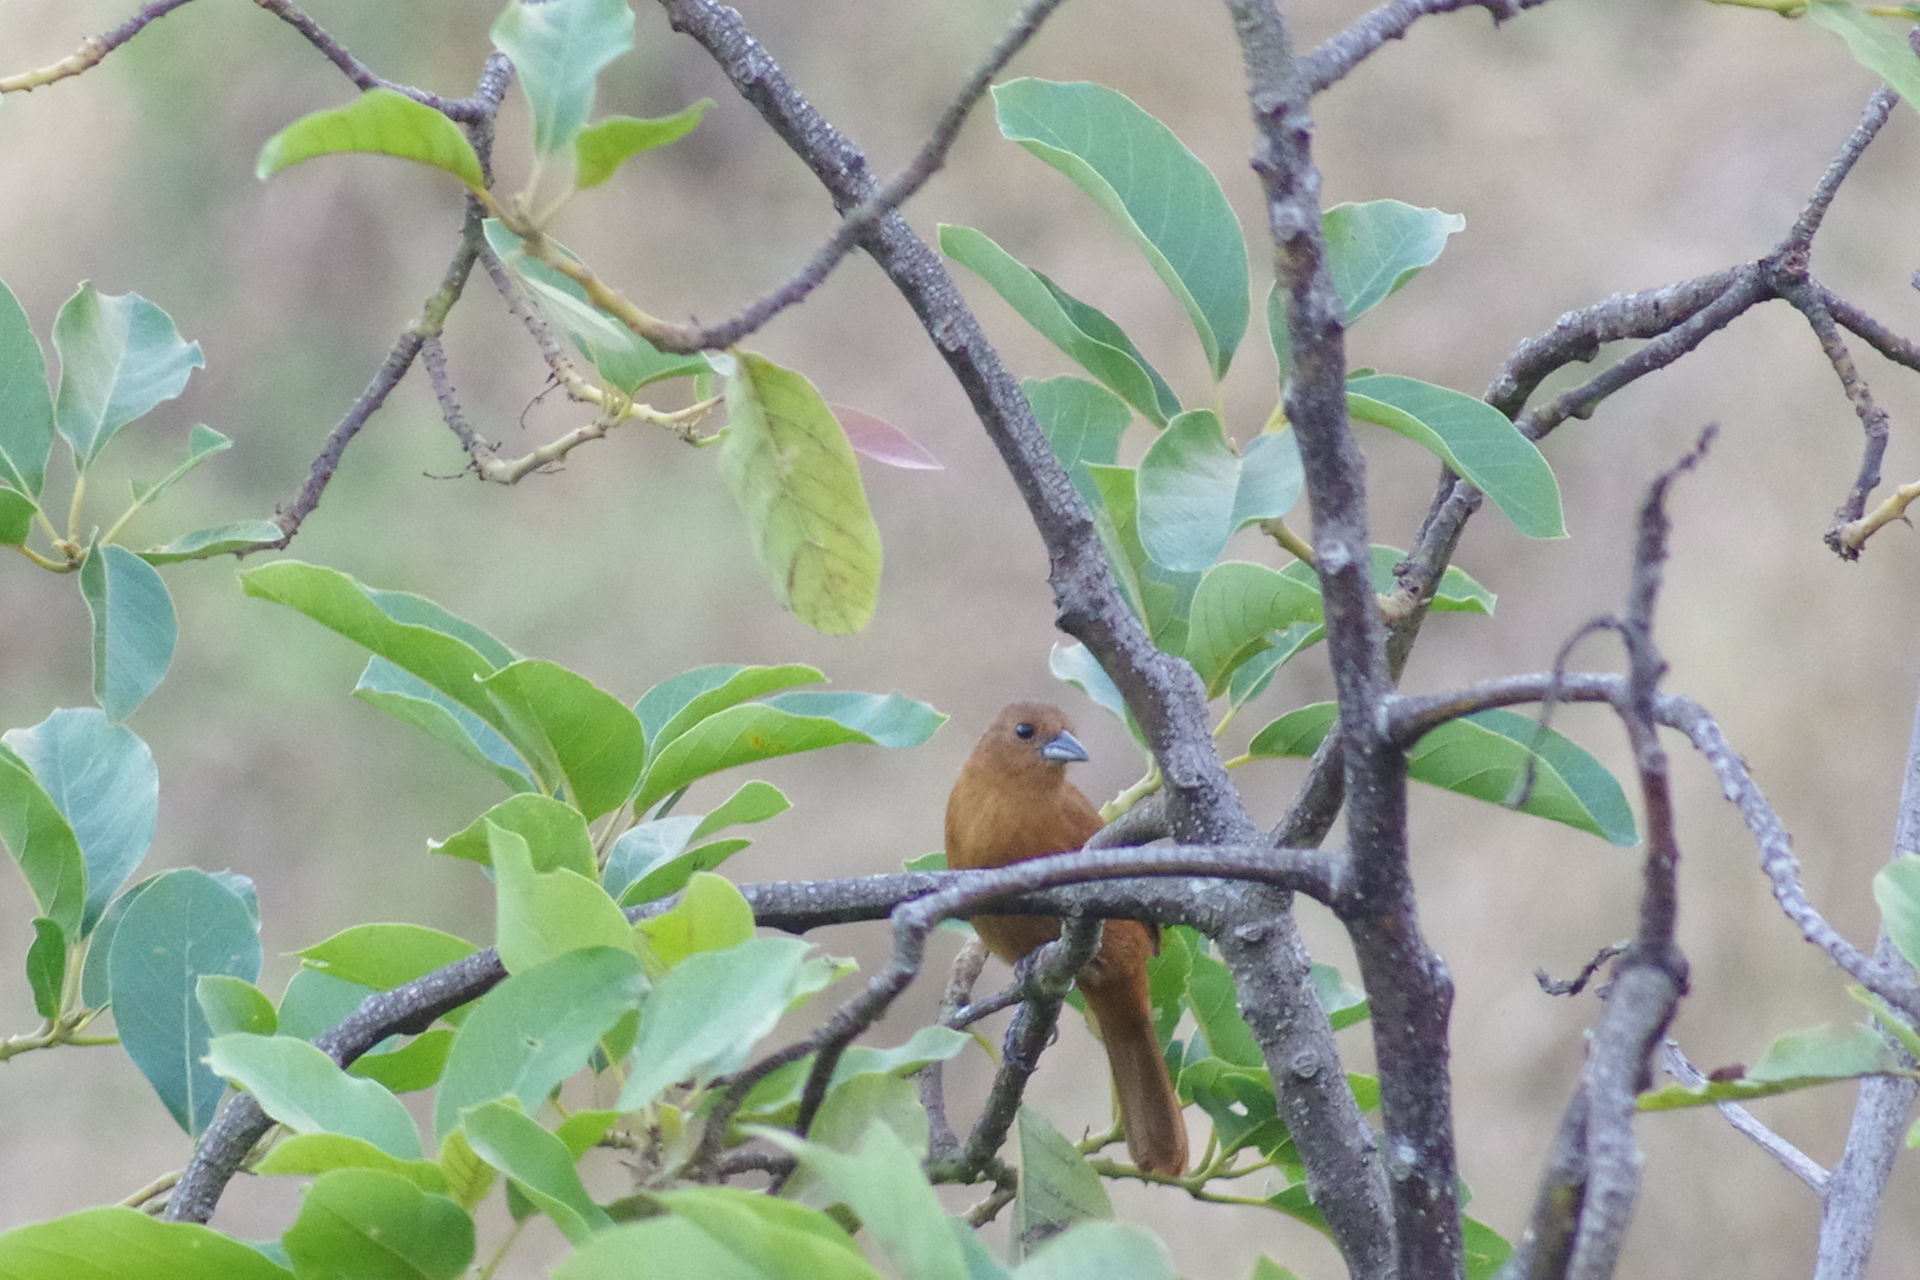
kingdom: Animalia
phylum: Chordata
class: Aves
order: Passeriformes
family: Thraupidae
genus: Tachyphonus
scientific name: Tachyphonus rufus
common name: White-lined tanager
